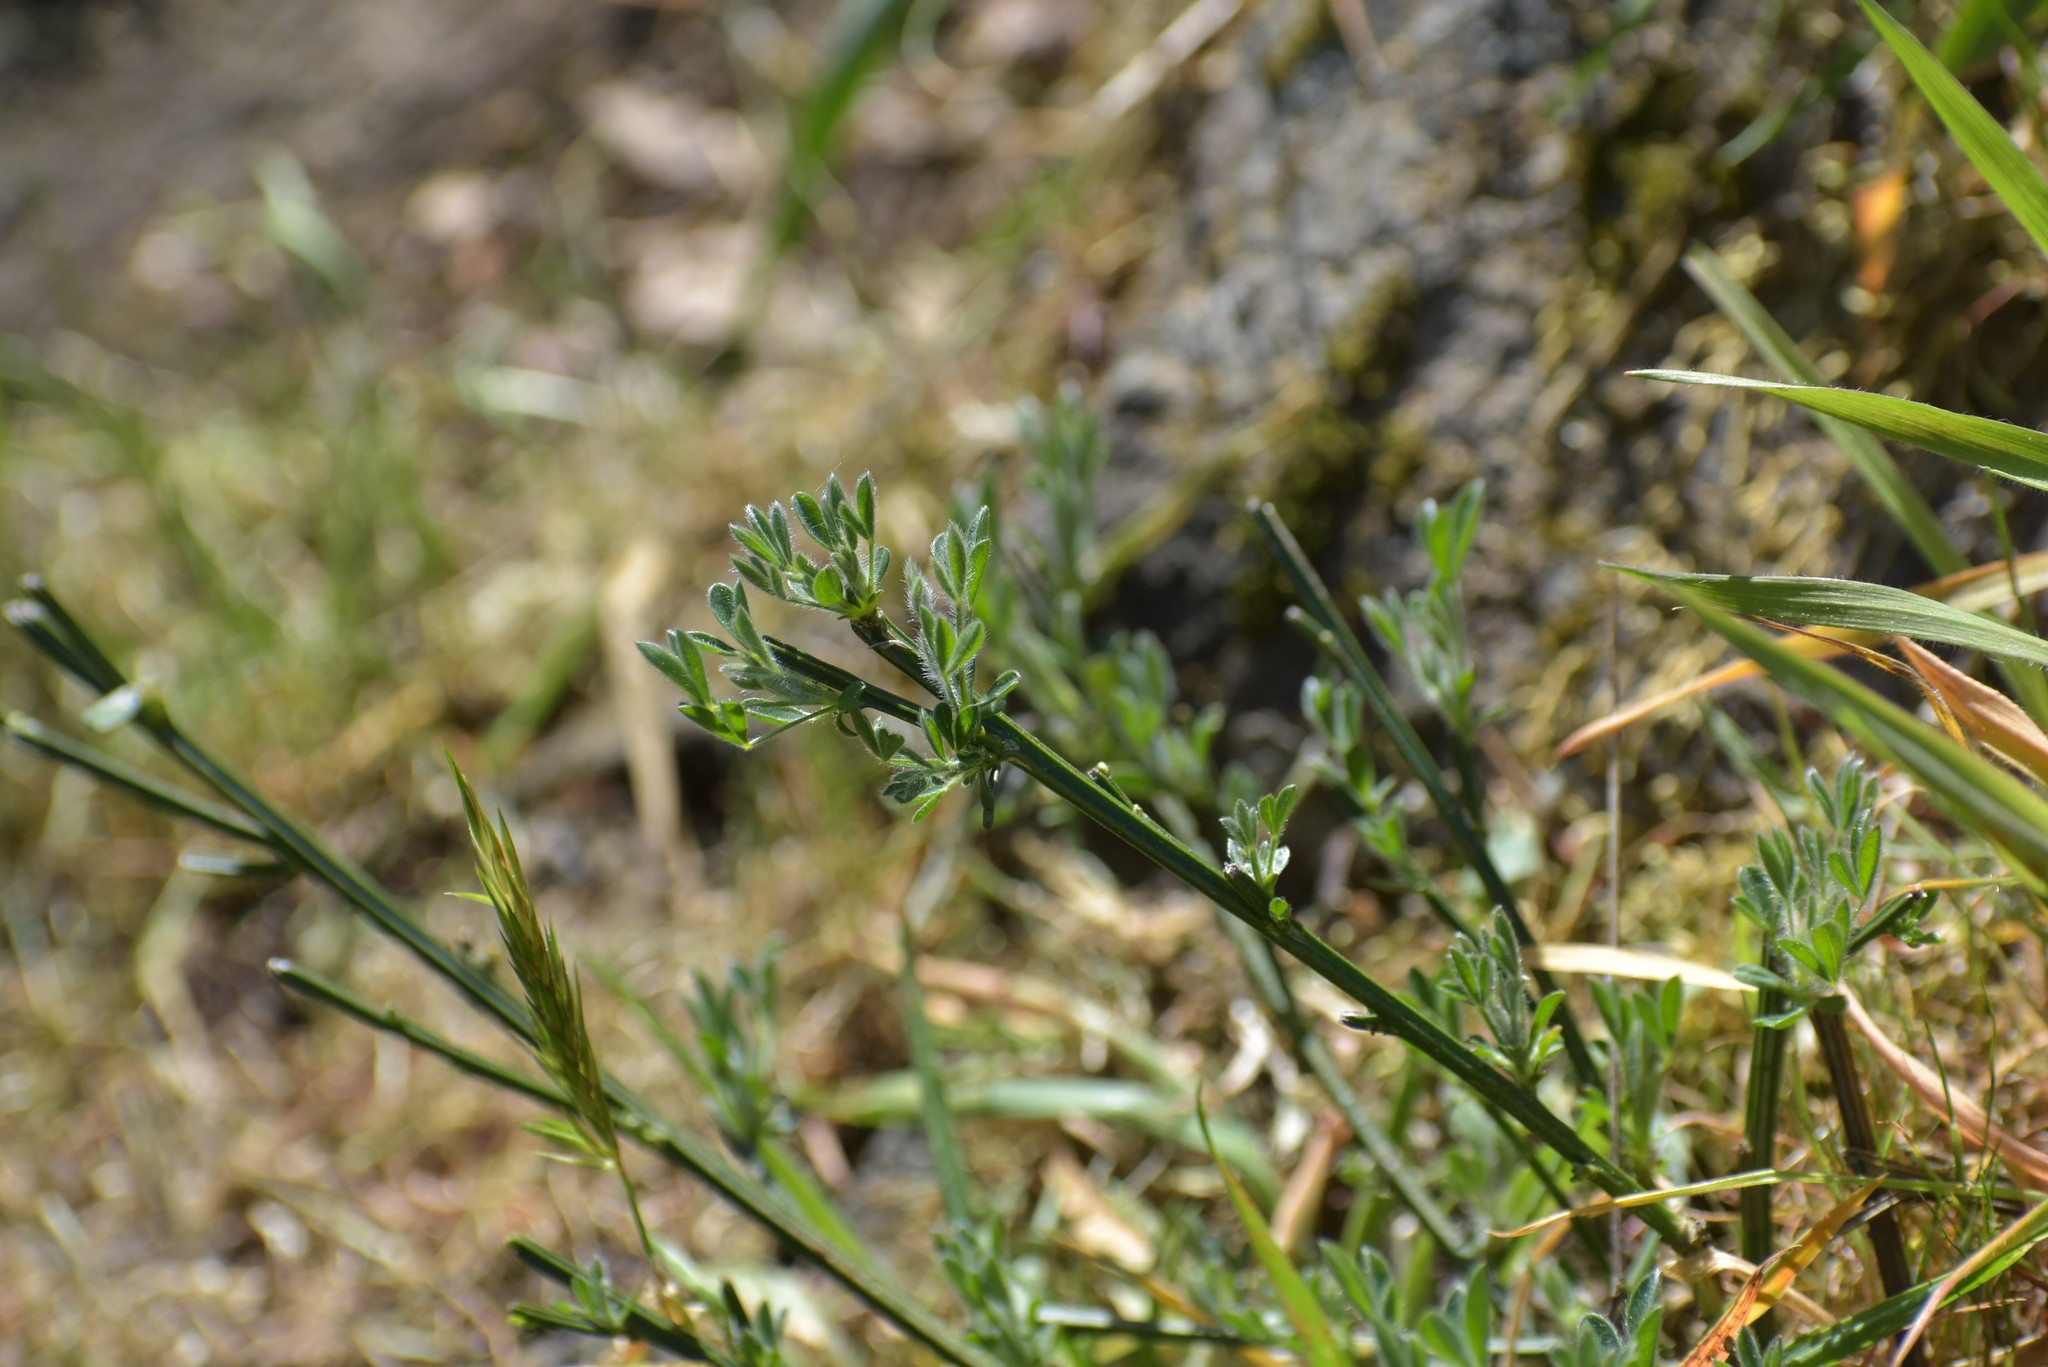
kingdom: Plantae
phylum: Tracheophyta
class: Magnoliopsida
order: Fabales
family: Fabaceae
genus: Cytisus
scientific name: Cytisus scoparius
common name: Scotch broom
